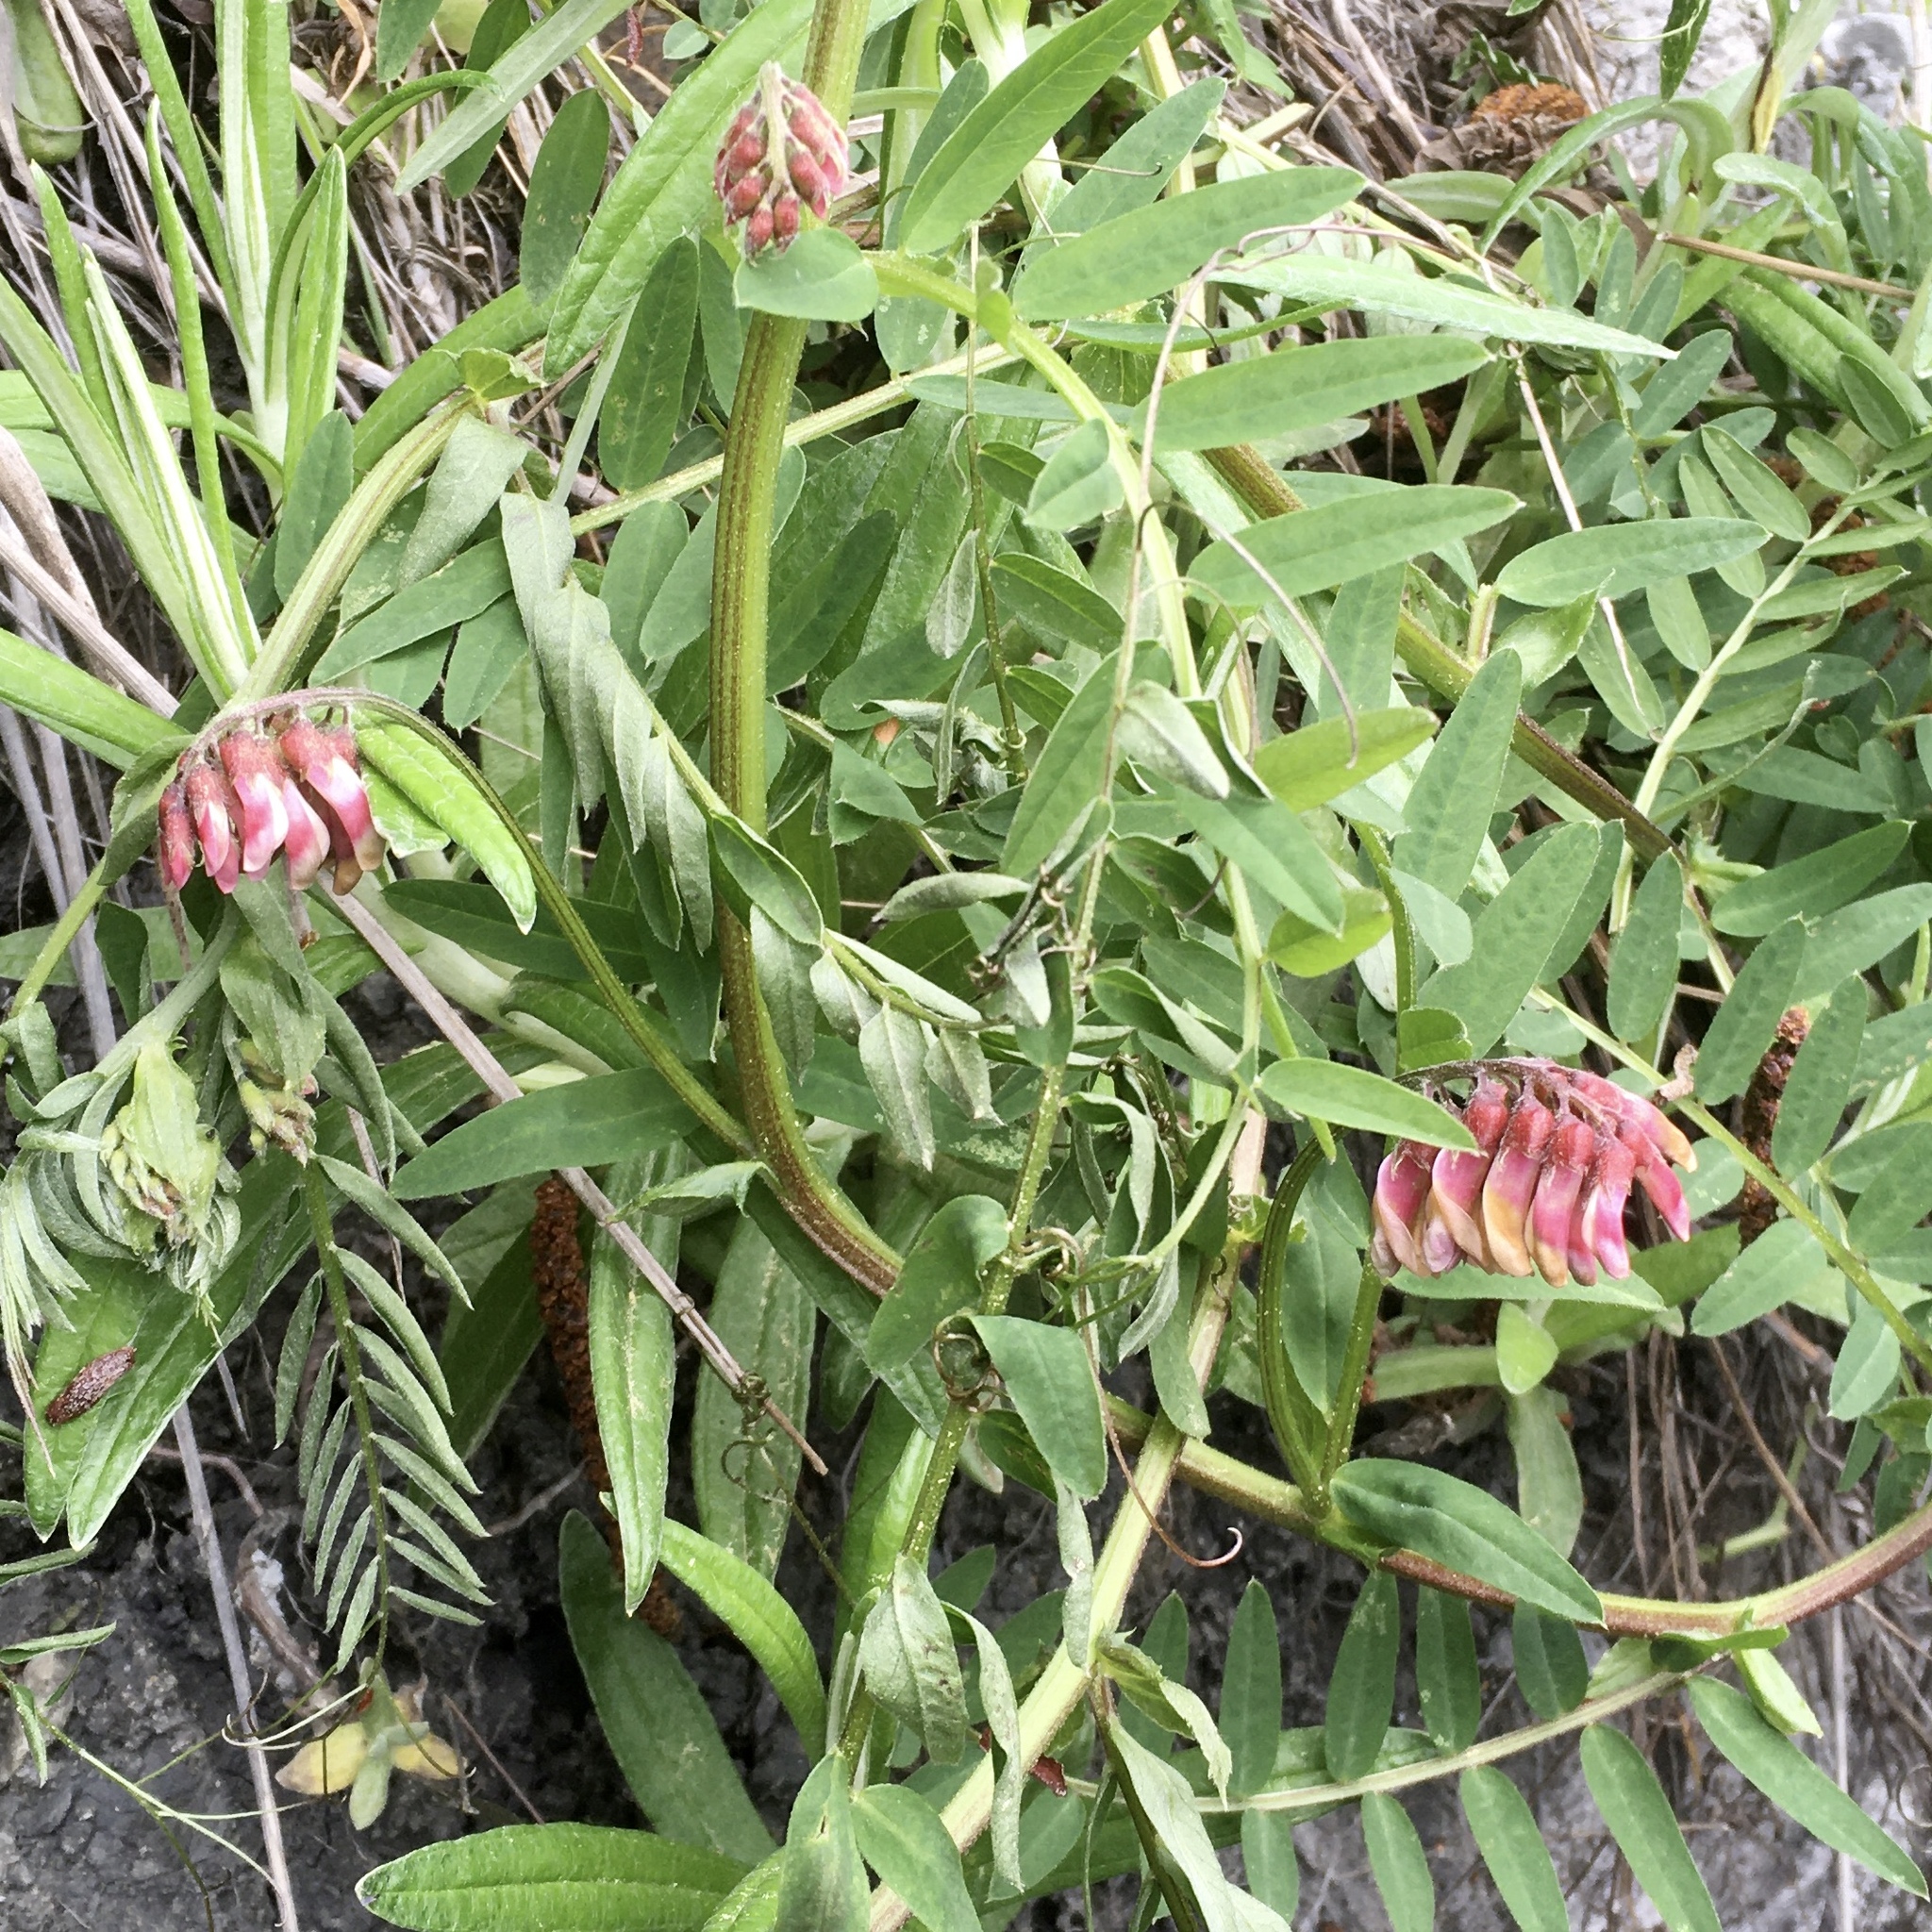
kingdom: Plantae
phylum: Tracheophyta
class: Magnoliopsida
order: Fabales
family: Fabaceae
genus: Vicia
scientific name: Vicia
